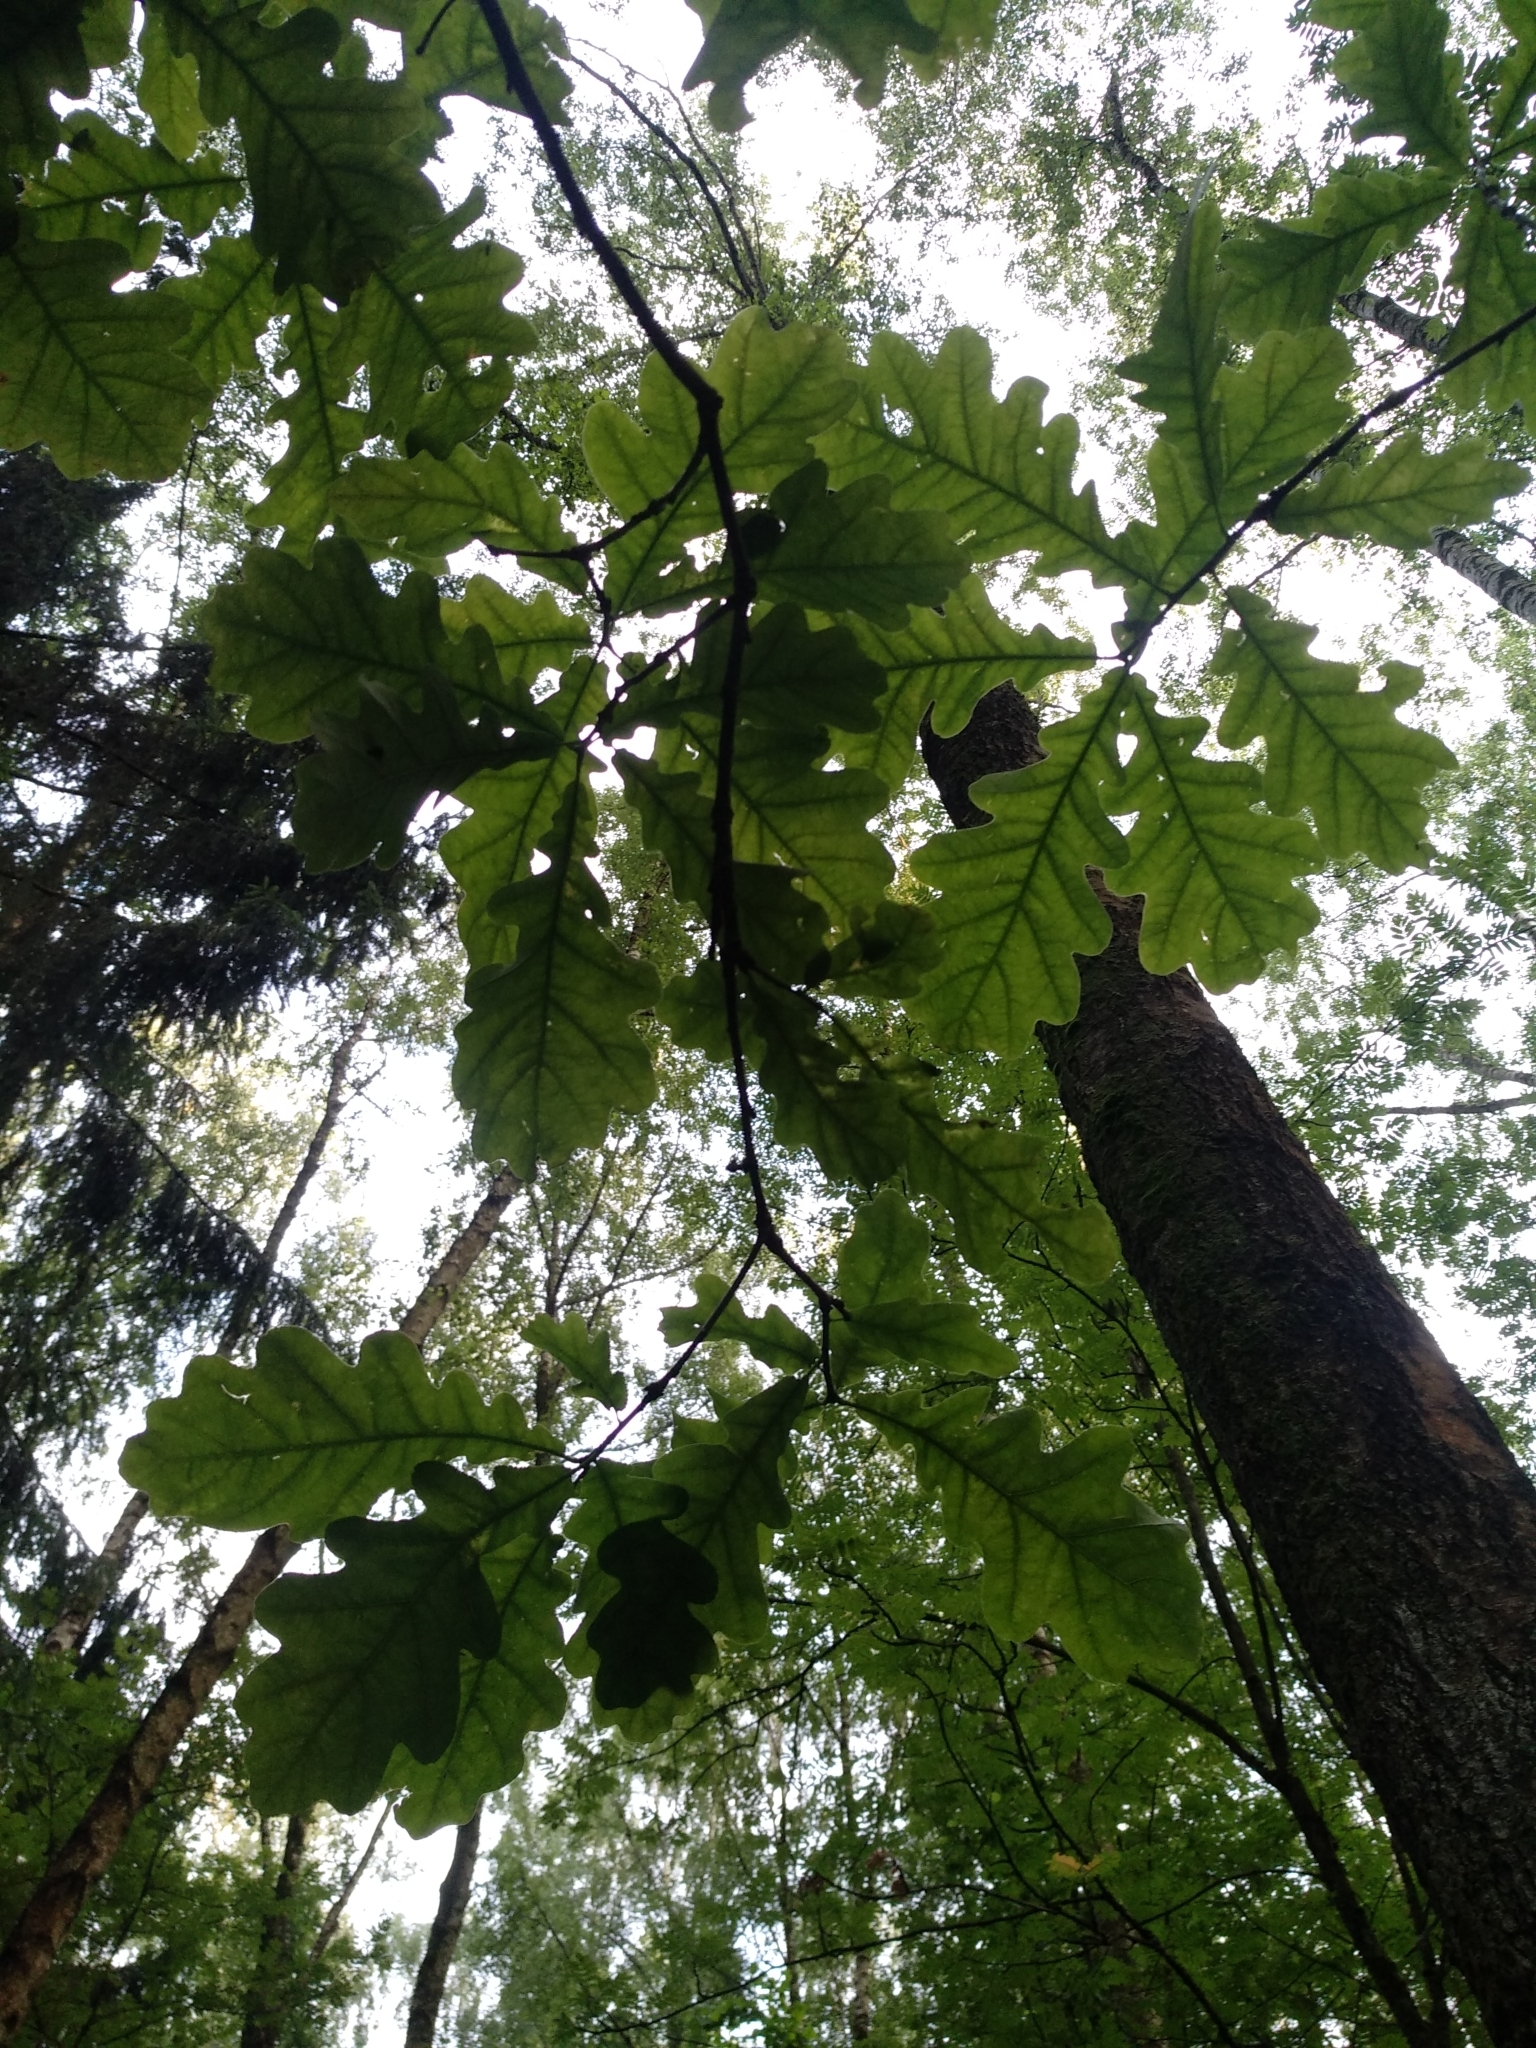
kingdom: Plantae
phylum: Tracheophyta
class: Magnoliopsida
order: Fagales
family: Fagaceae
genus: Quercus
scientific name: Quercus robur
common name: Pedunculate oak
